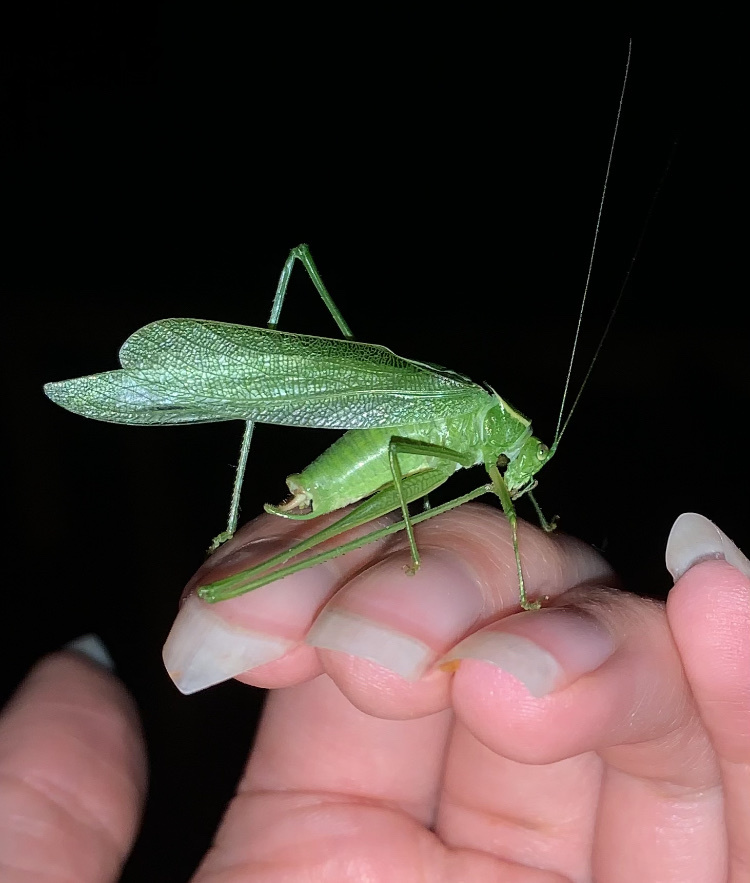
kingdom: Animalia
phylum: Arthropoda
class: Insecta
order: Orthoptera
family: Tettigoniidae
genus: Scudderia
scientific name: Scudderia septentrionalis
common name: Northern bush-katydid
